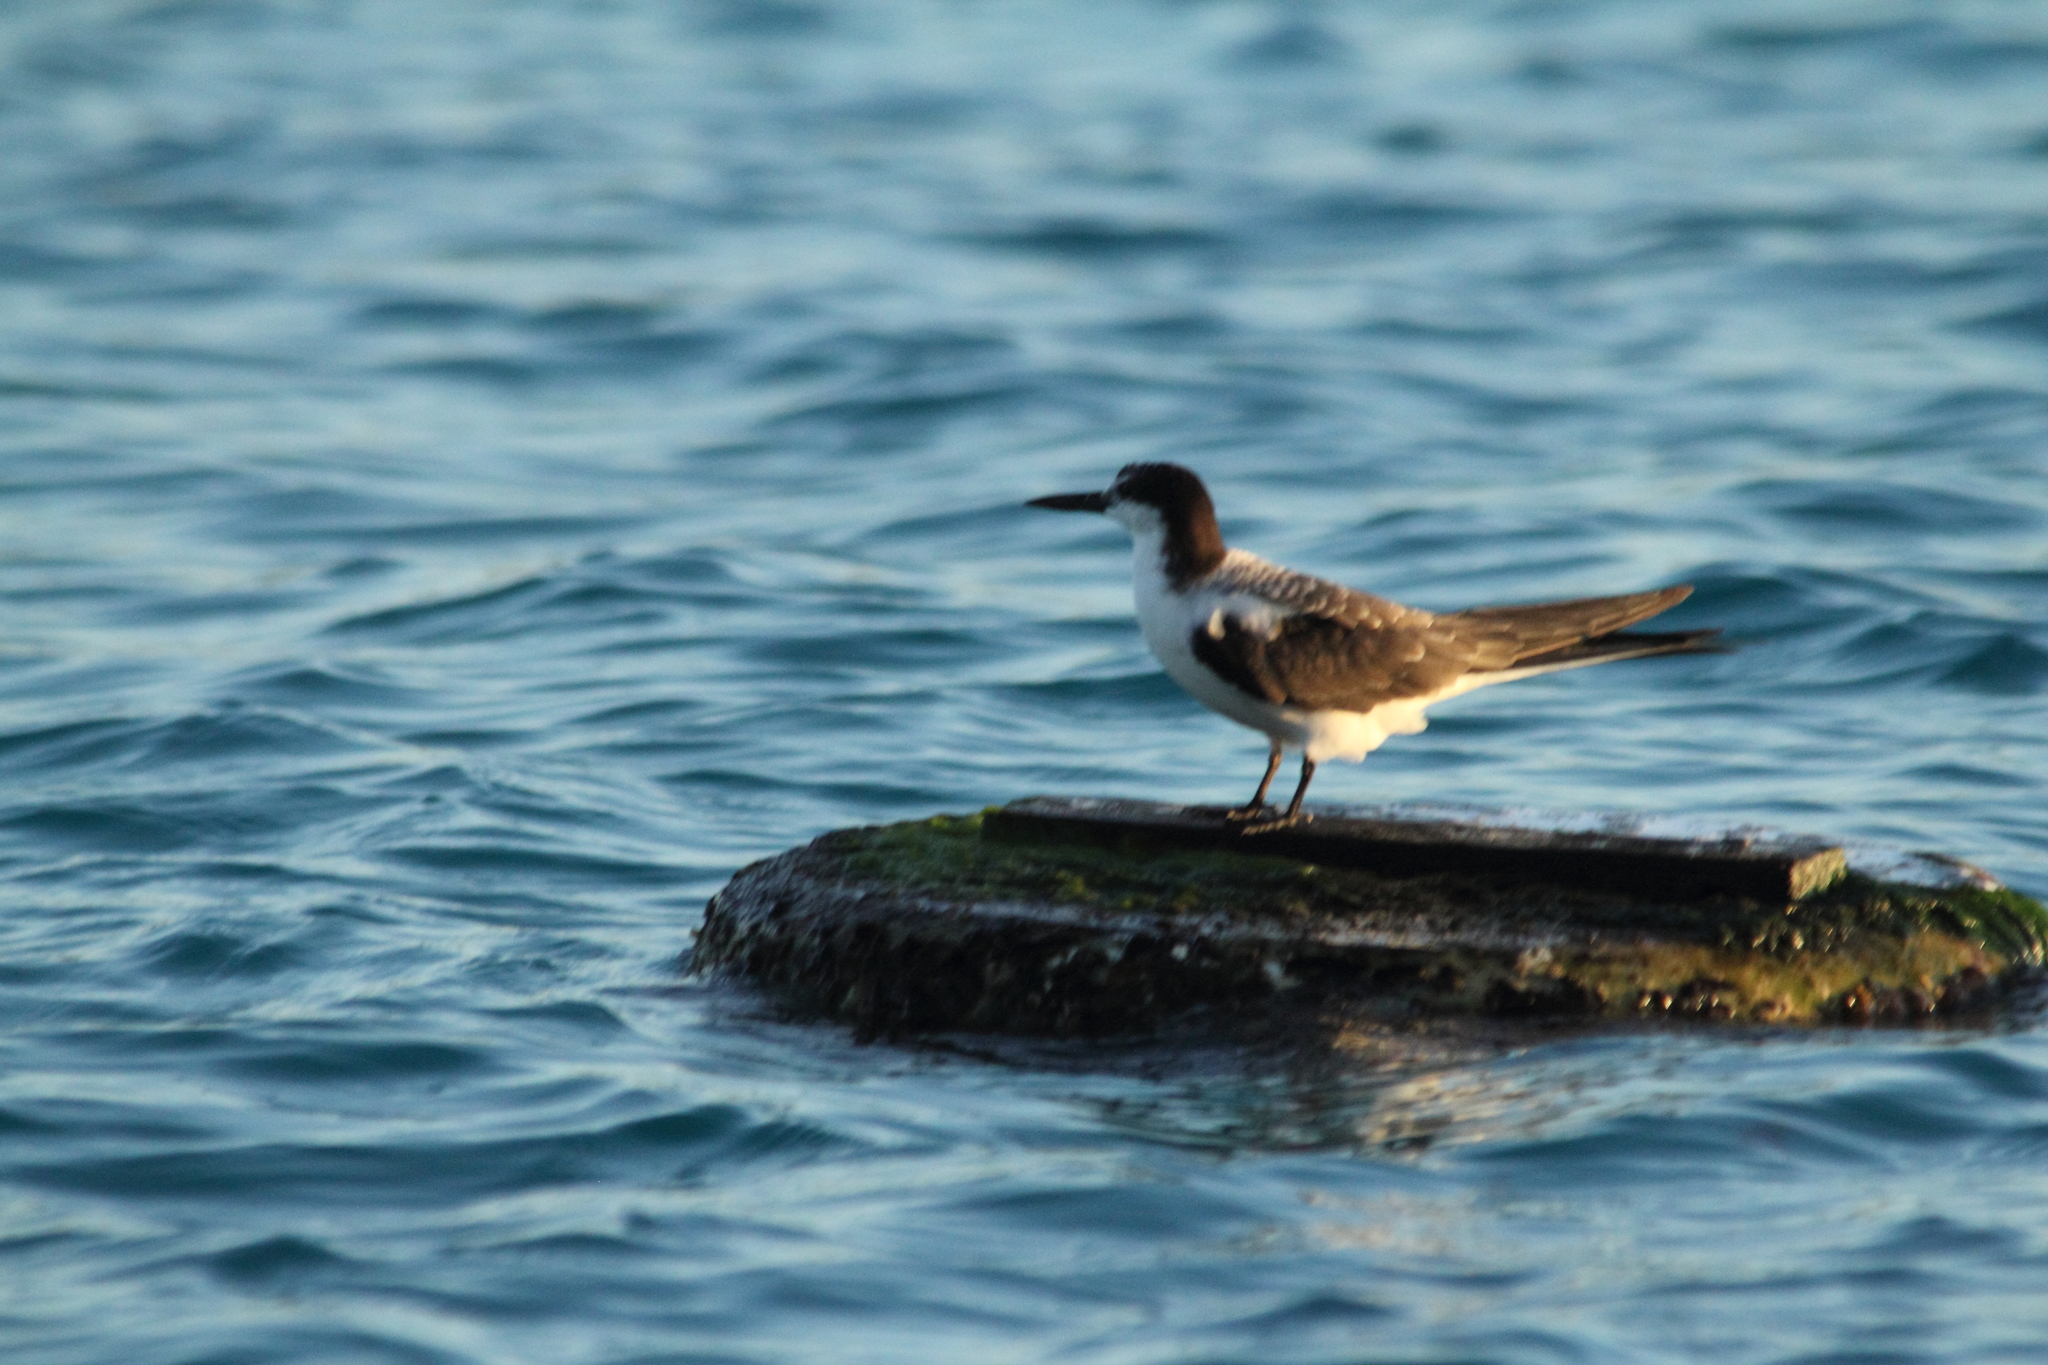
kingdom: Animalia
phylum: Chordata
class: Aves
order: Charadriiformes
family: Laridae
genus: Onychoprion
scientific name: Onychoprion anaethetus
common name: Bridled tern
